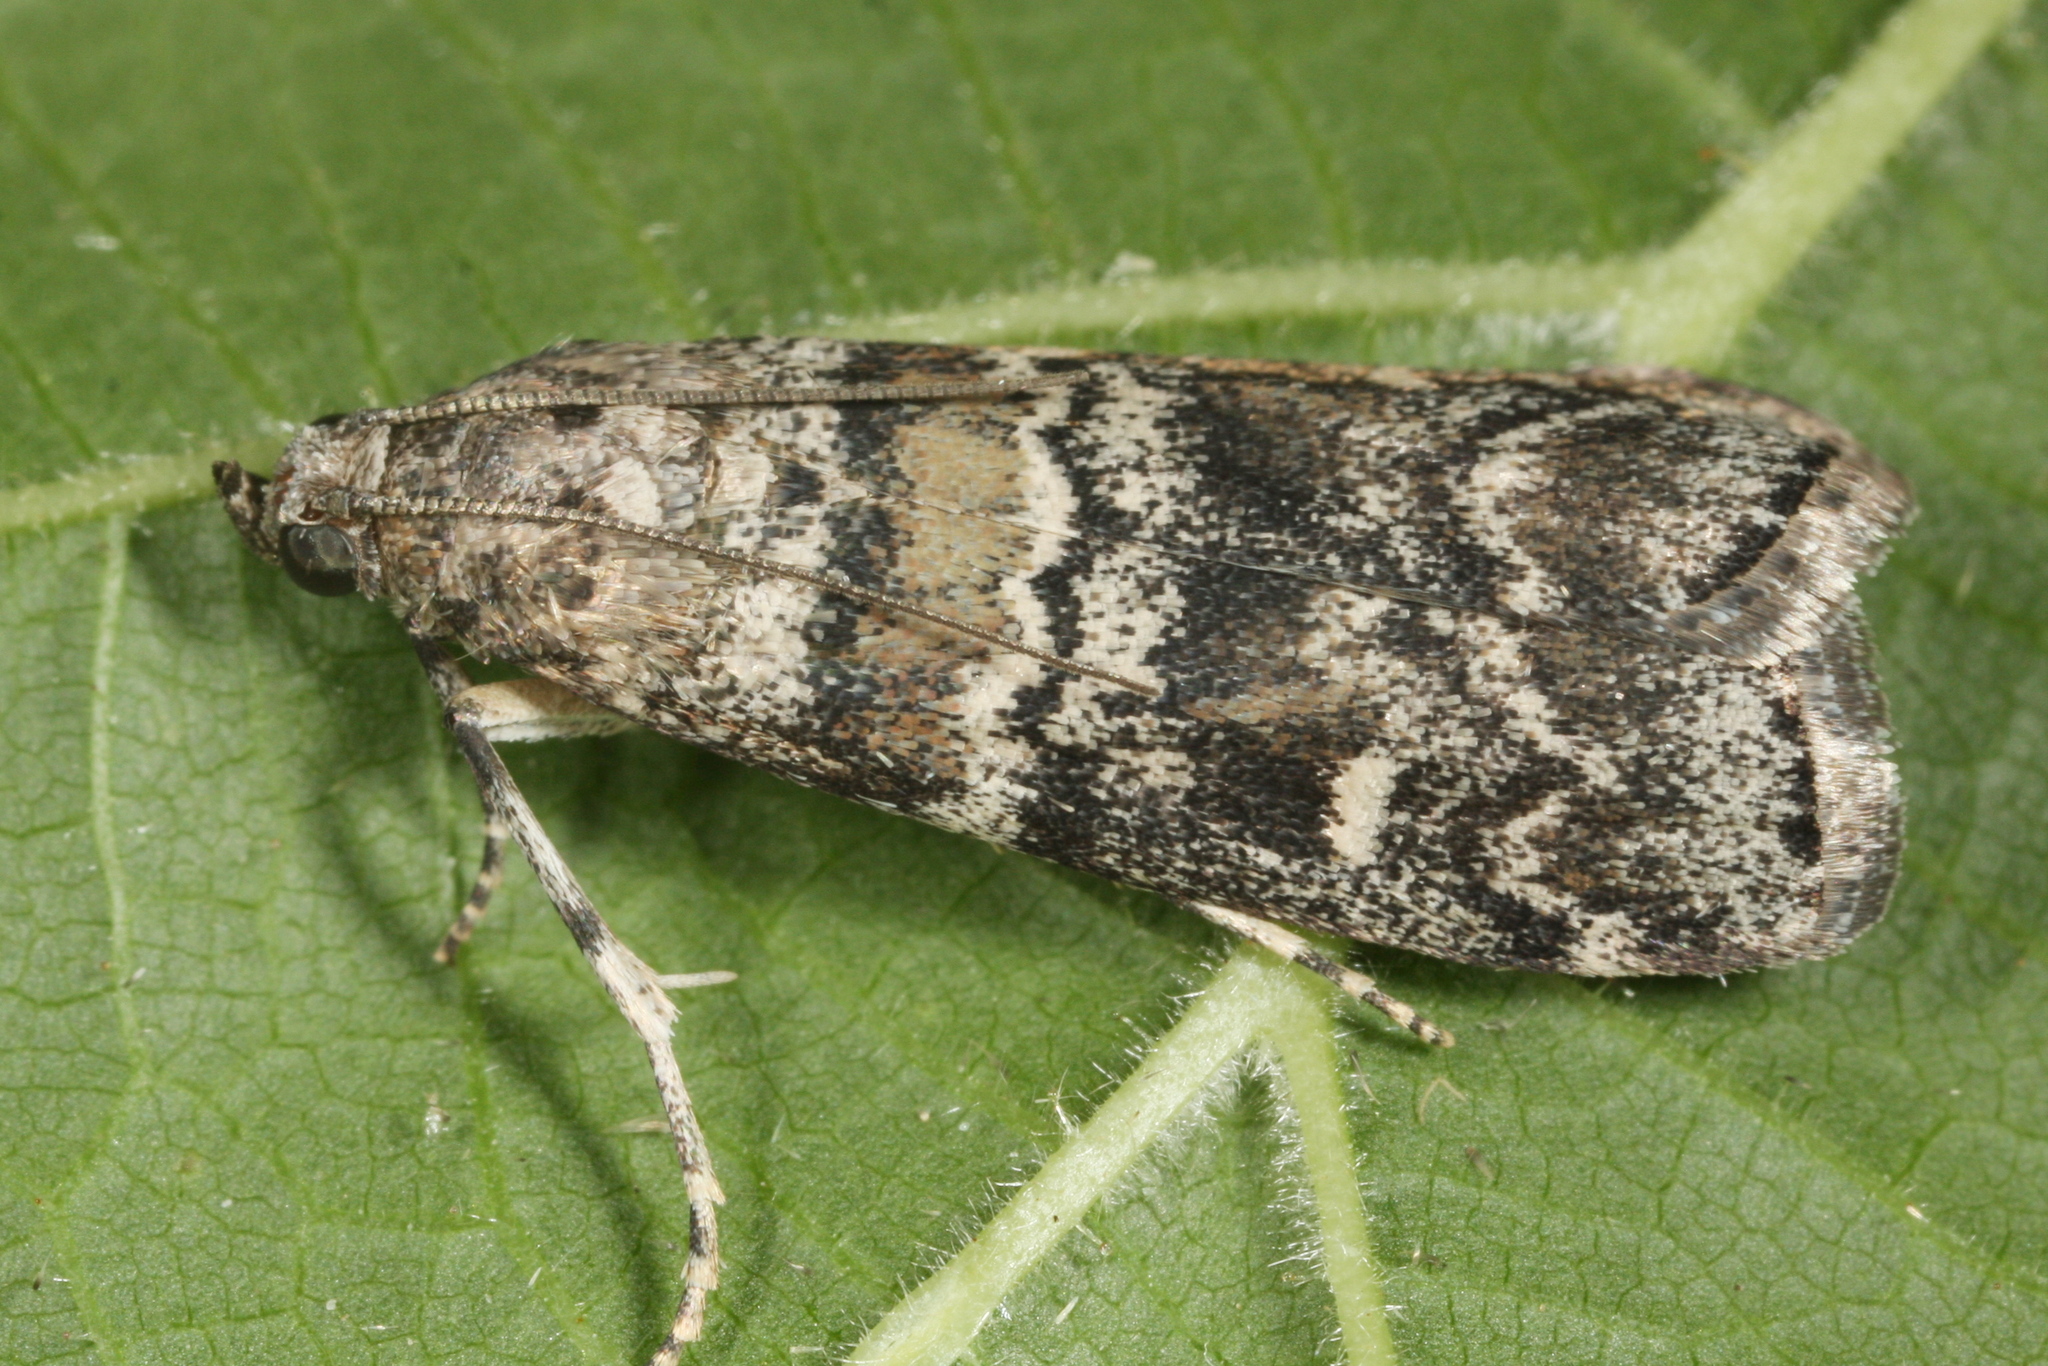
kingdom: Animalia
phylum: Arthropoda
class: Insecta
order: Lepidoptera
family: Pyralidae
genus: Dioryctria
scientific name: Dioryctria abietella
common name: Dark pine knot-horn
